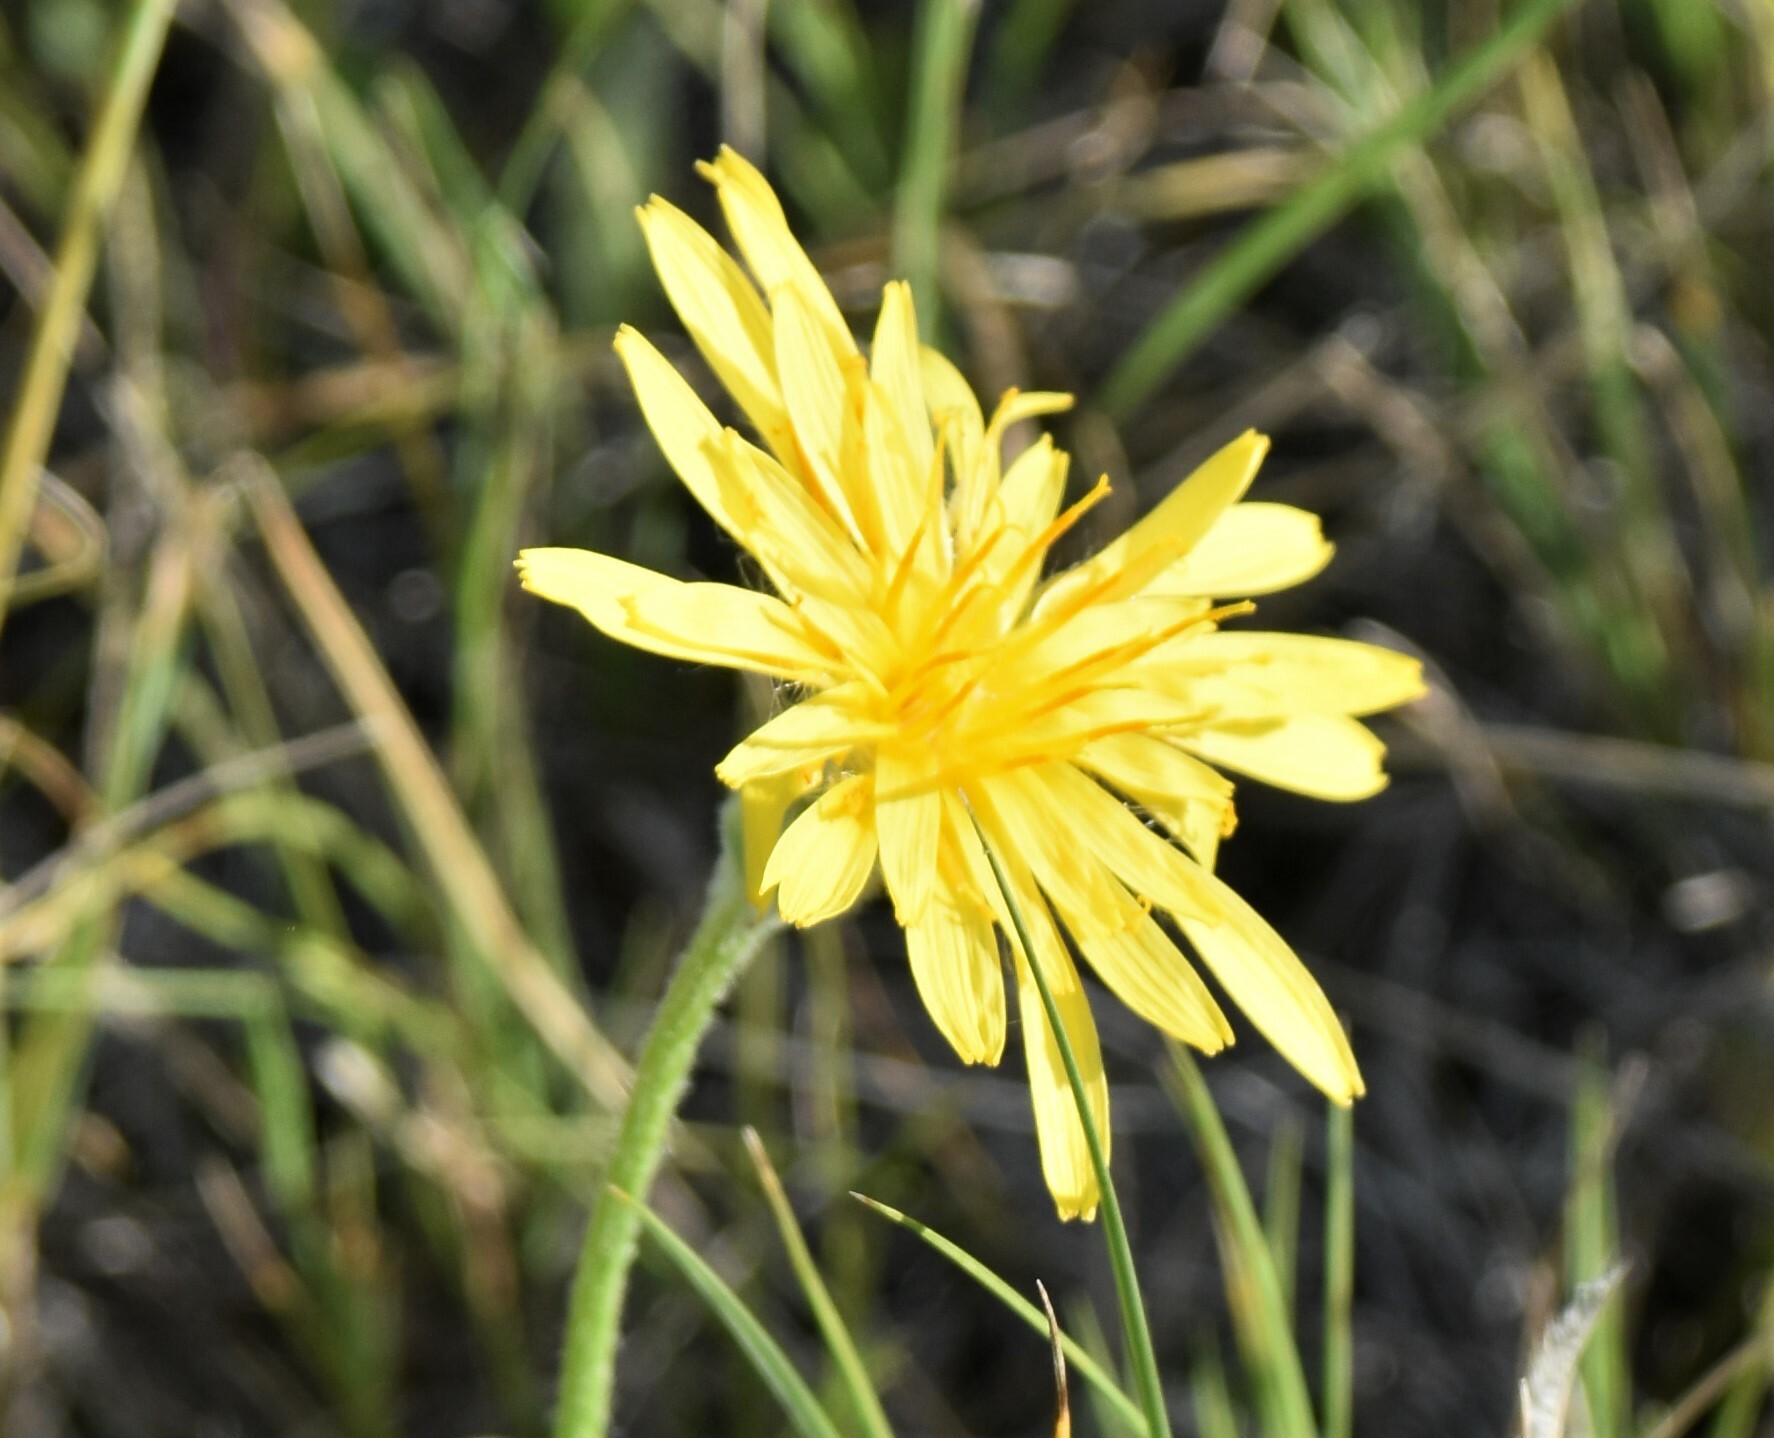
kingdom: Plantae
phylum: Tracheophyta
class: Magnoliopsida
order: Asterales
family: Asteraceae
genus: Agoseris
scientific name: Agoseris glauca
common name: Prairie agoseris
